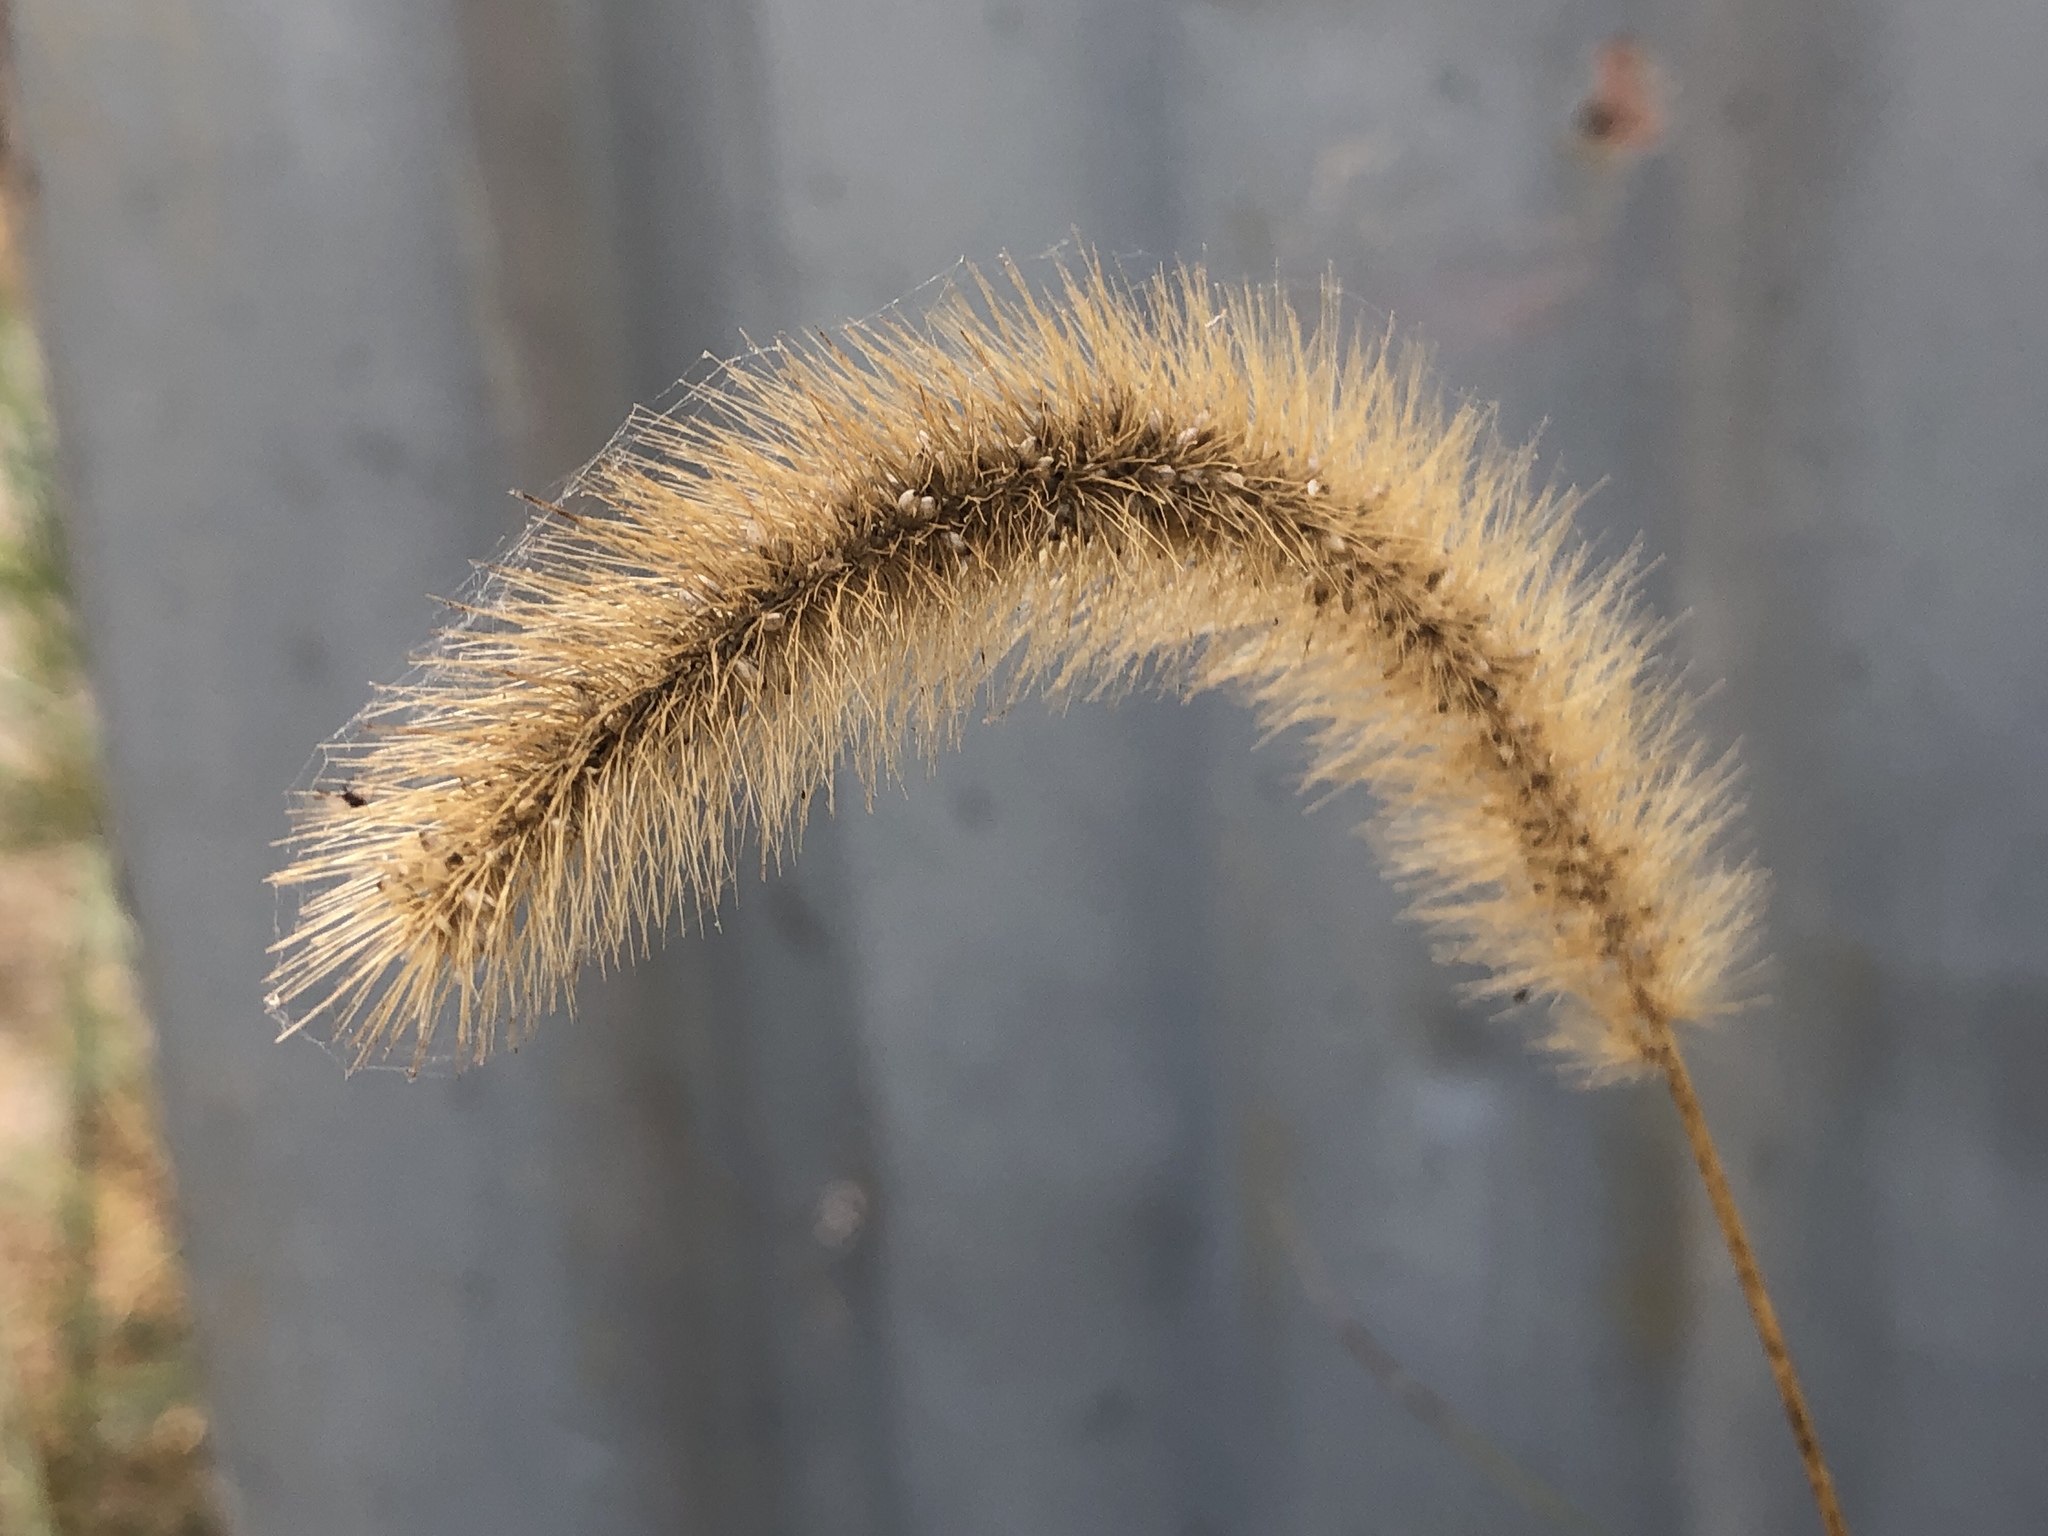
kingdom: Plantae
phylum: Tracheophyta
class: Liliopsida
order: Poales
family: Poaceae
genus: Setaria
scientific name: Setaria viridis
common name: Green bristlegrass
